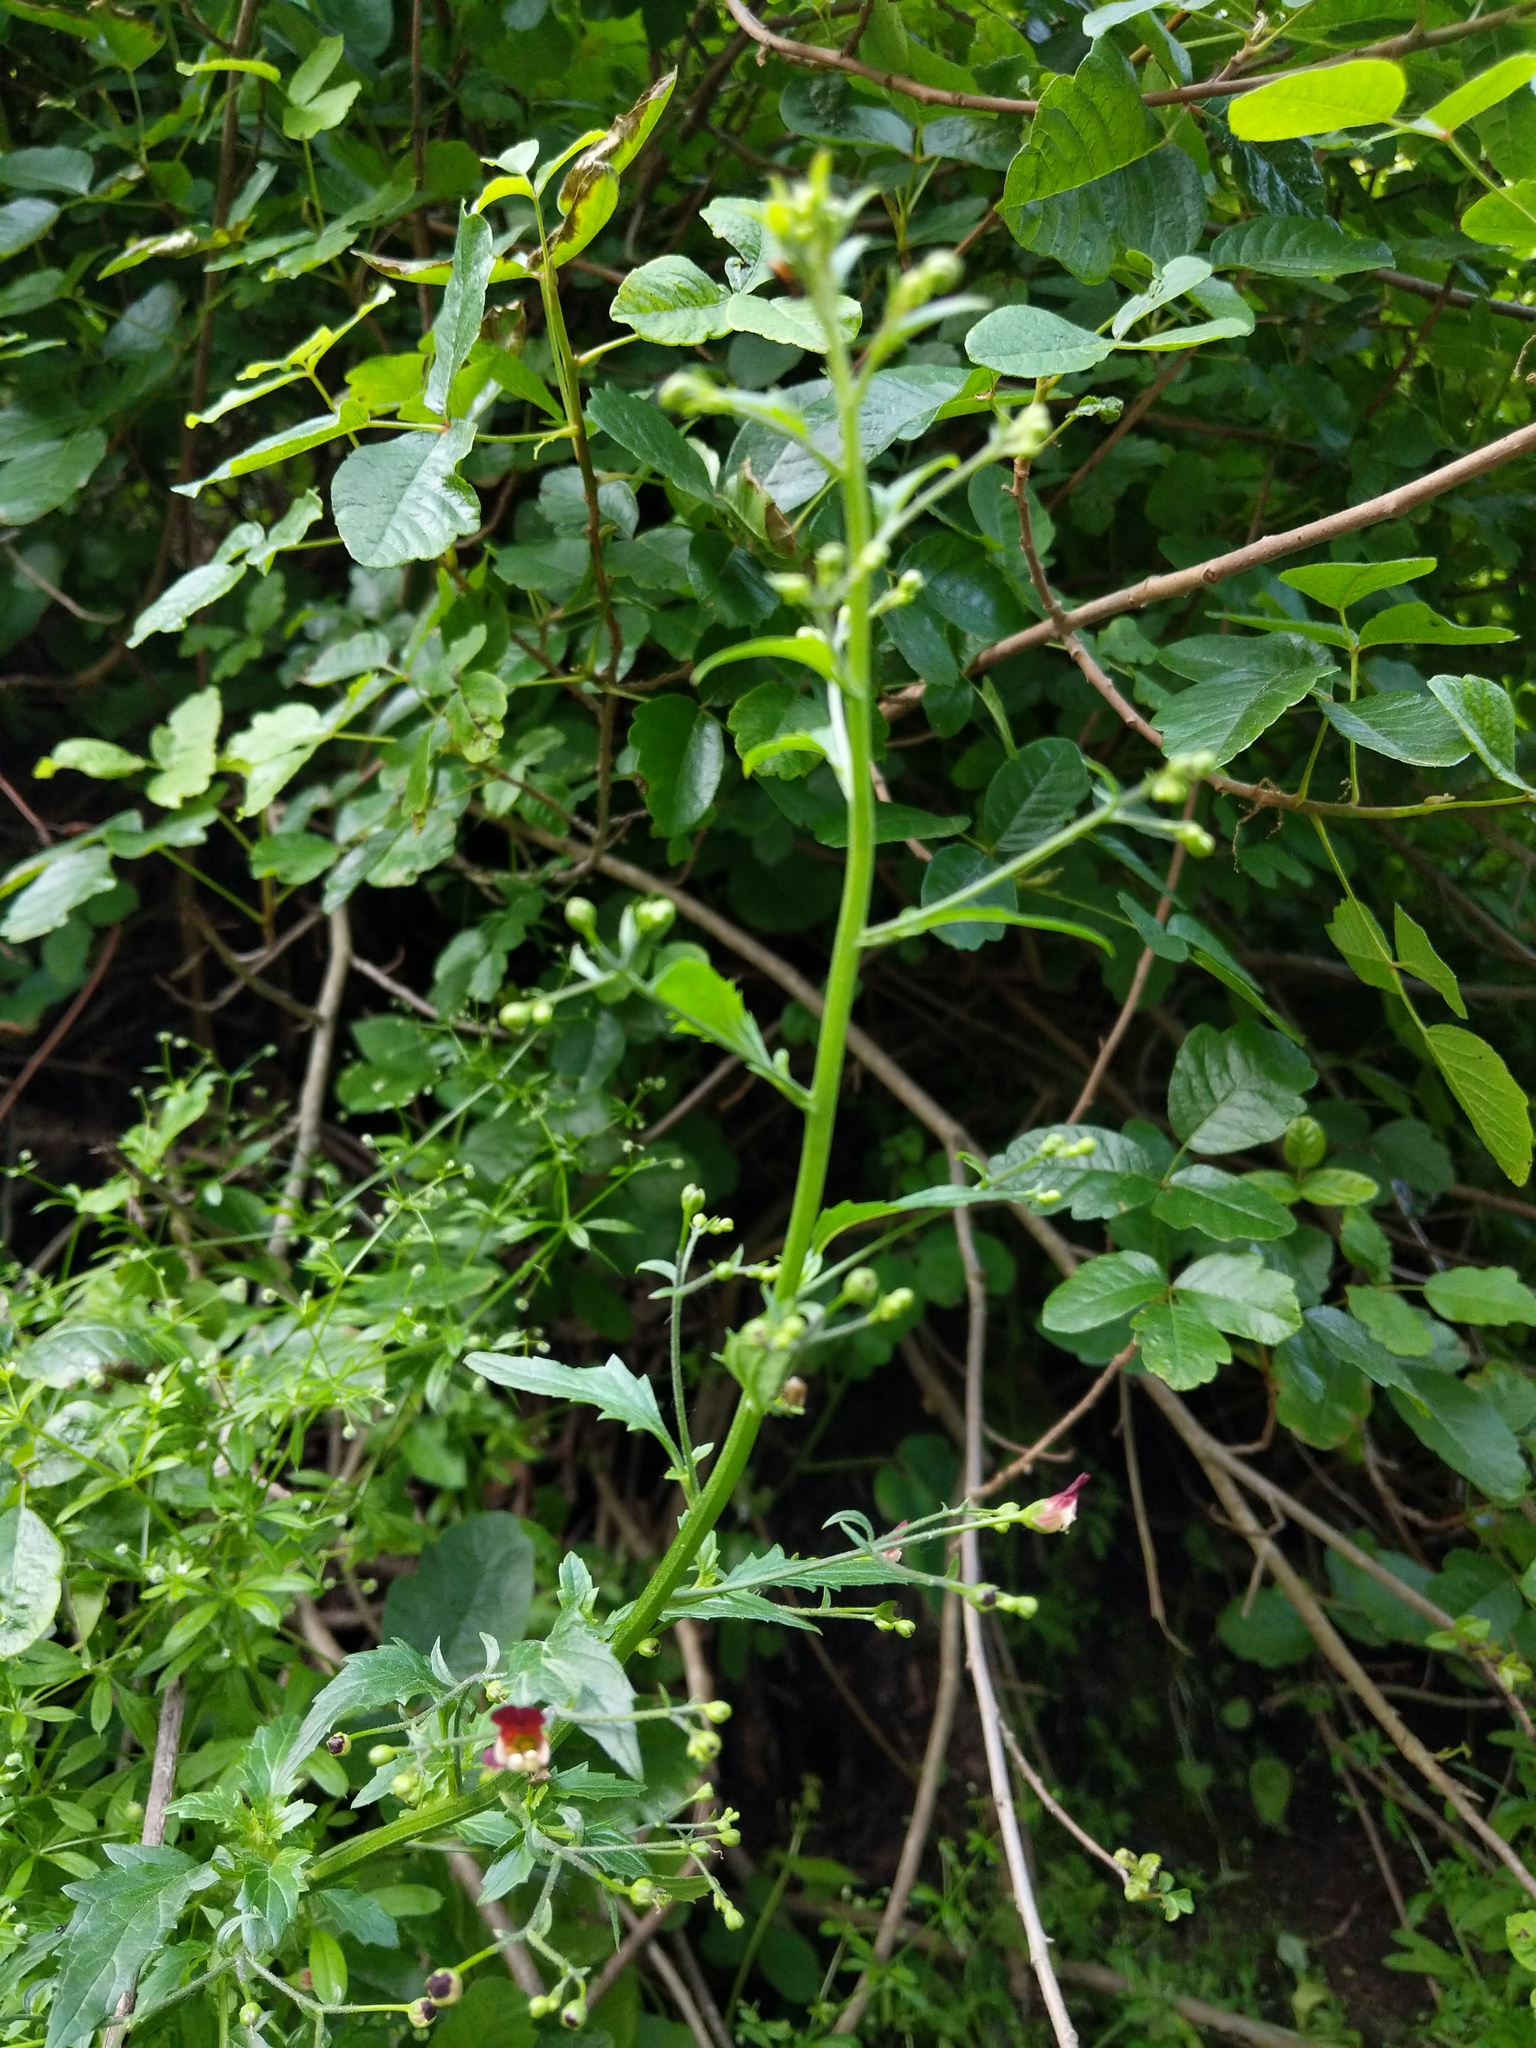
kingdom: Plantae
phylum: Tracheophyta
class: Magnoliopsida
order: Lamiales
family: Scrophulariaceae
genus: Scrophularia
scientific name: Scrophularia californica
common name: California figwort
